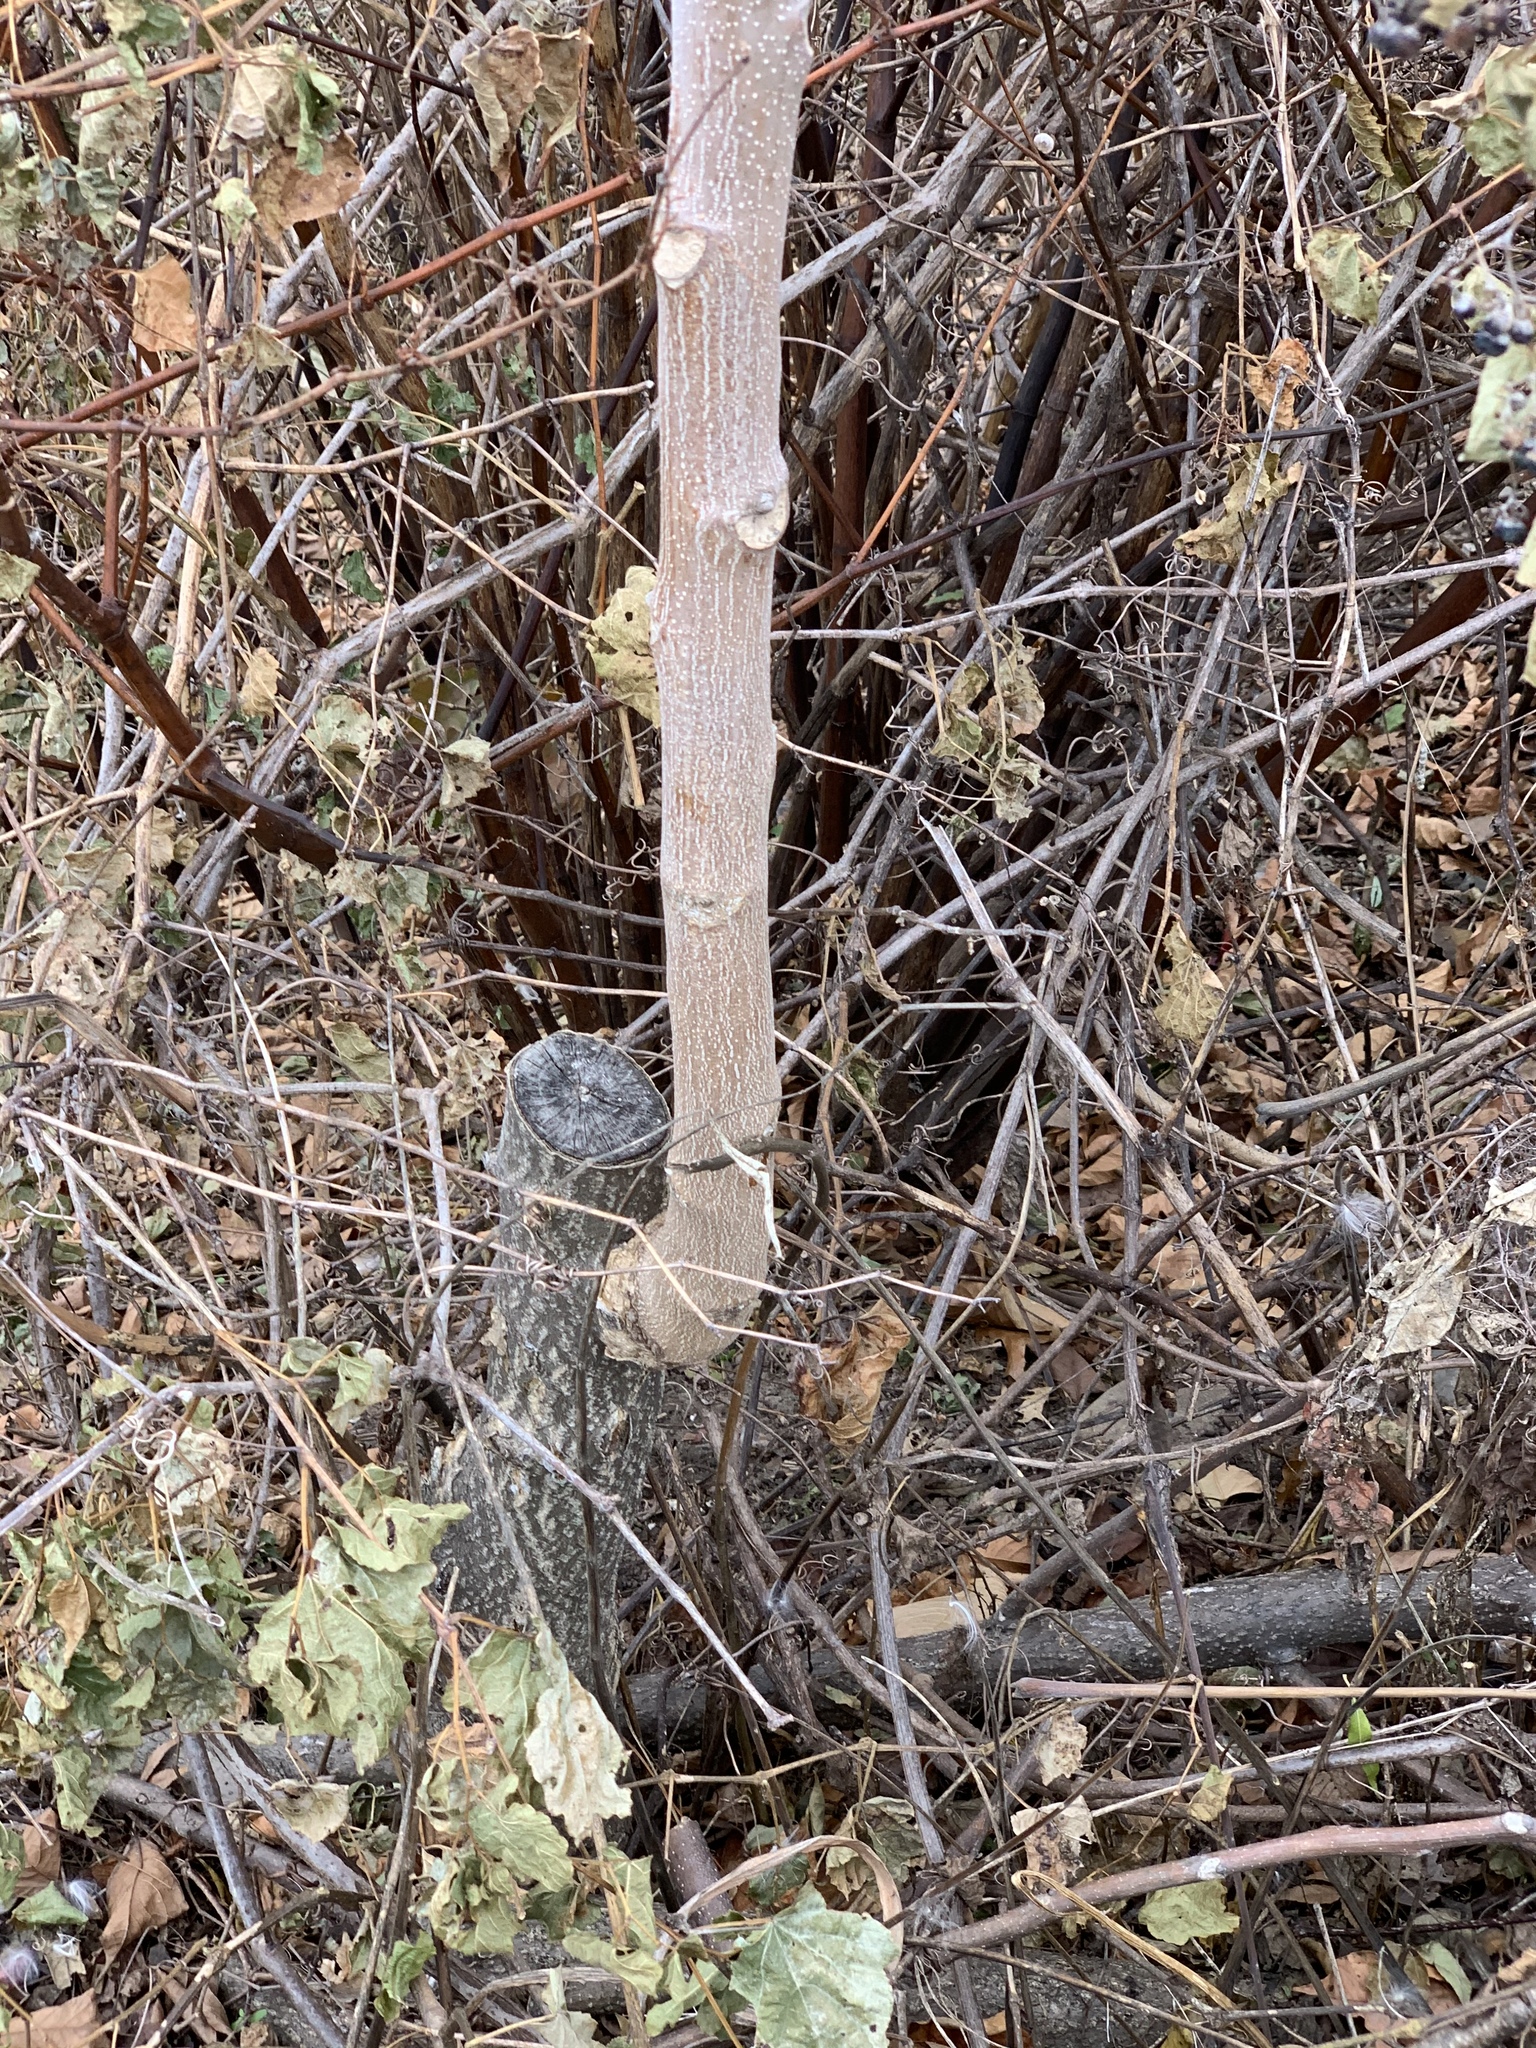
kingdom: Plantae
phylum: Tracheophyta
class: Magnoliopsida
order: Sapindales
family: Simaroubaceae
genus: Ailanthus
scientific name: Ailanthus altissima
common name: Tree-of-heaven
